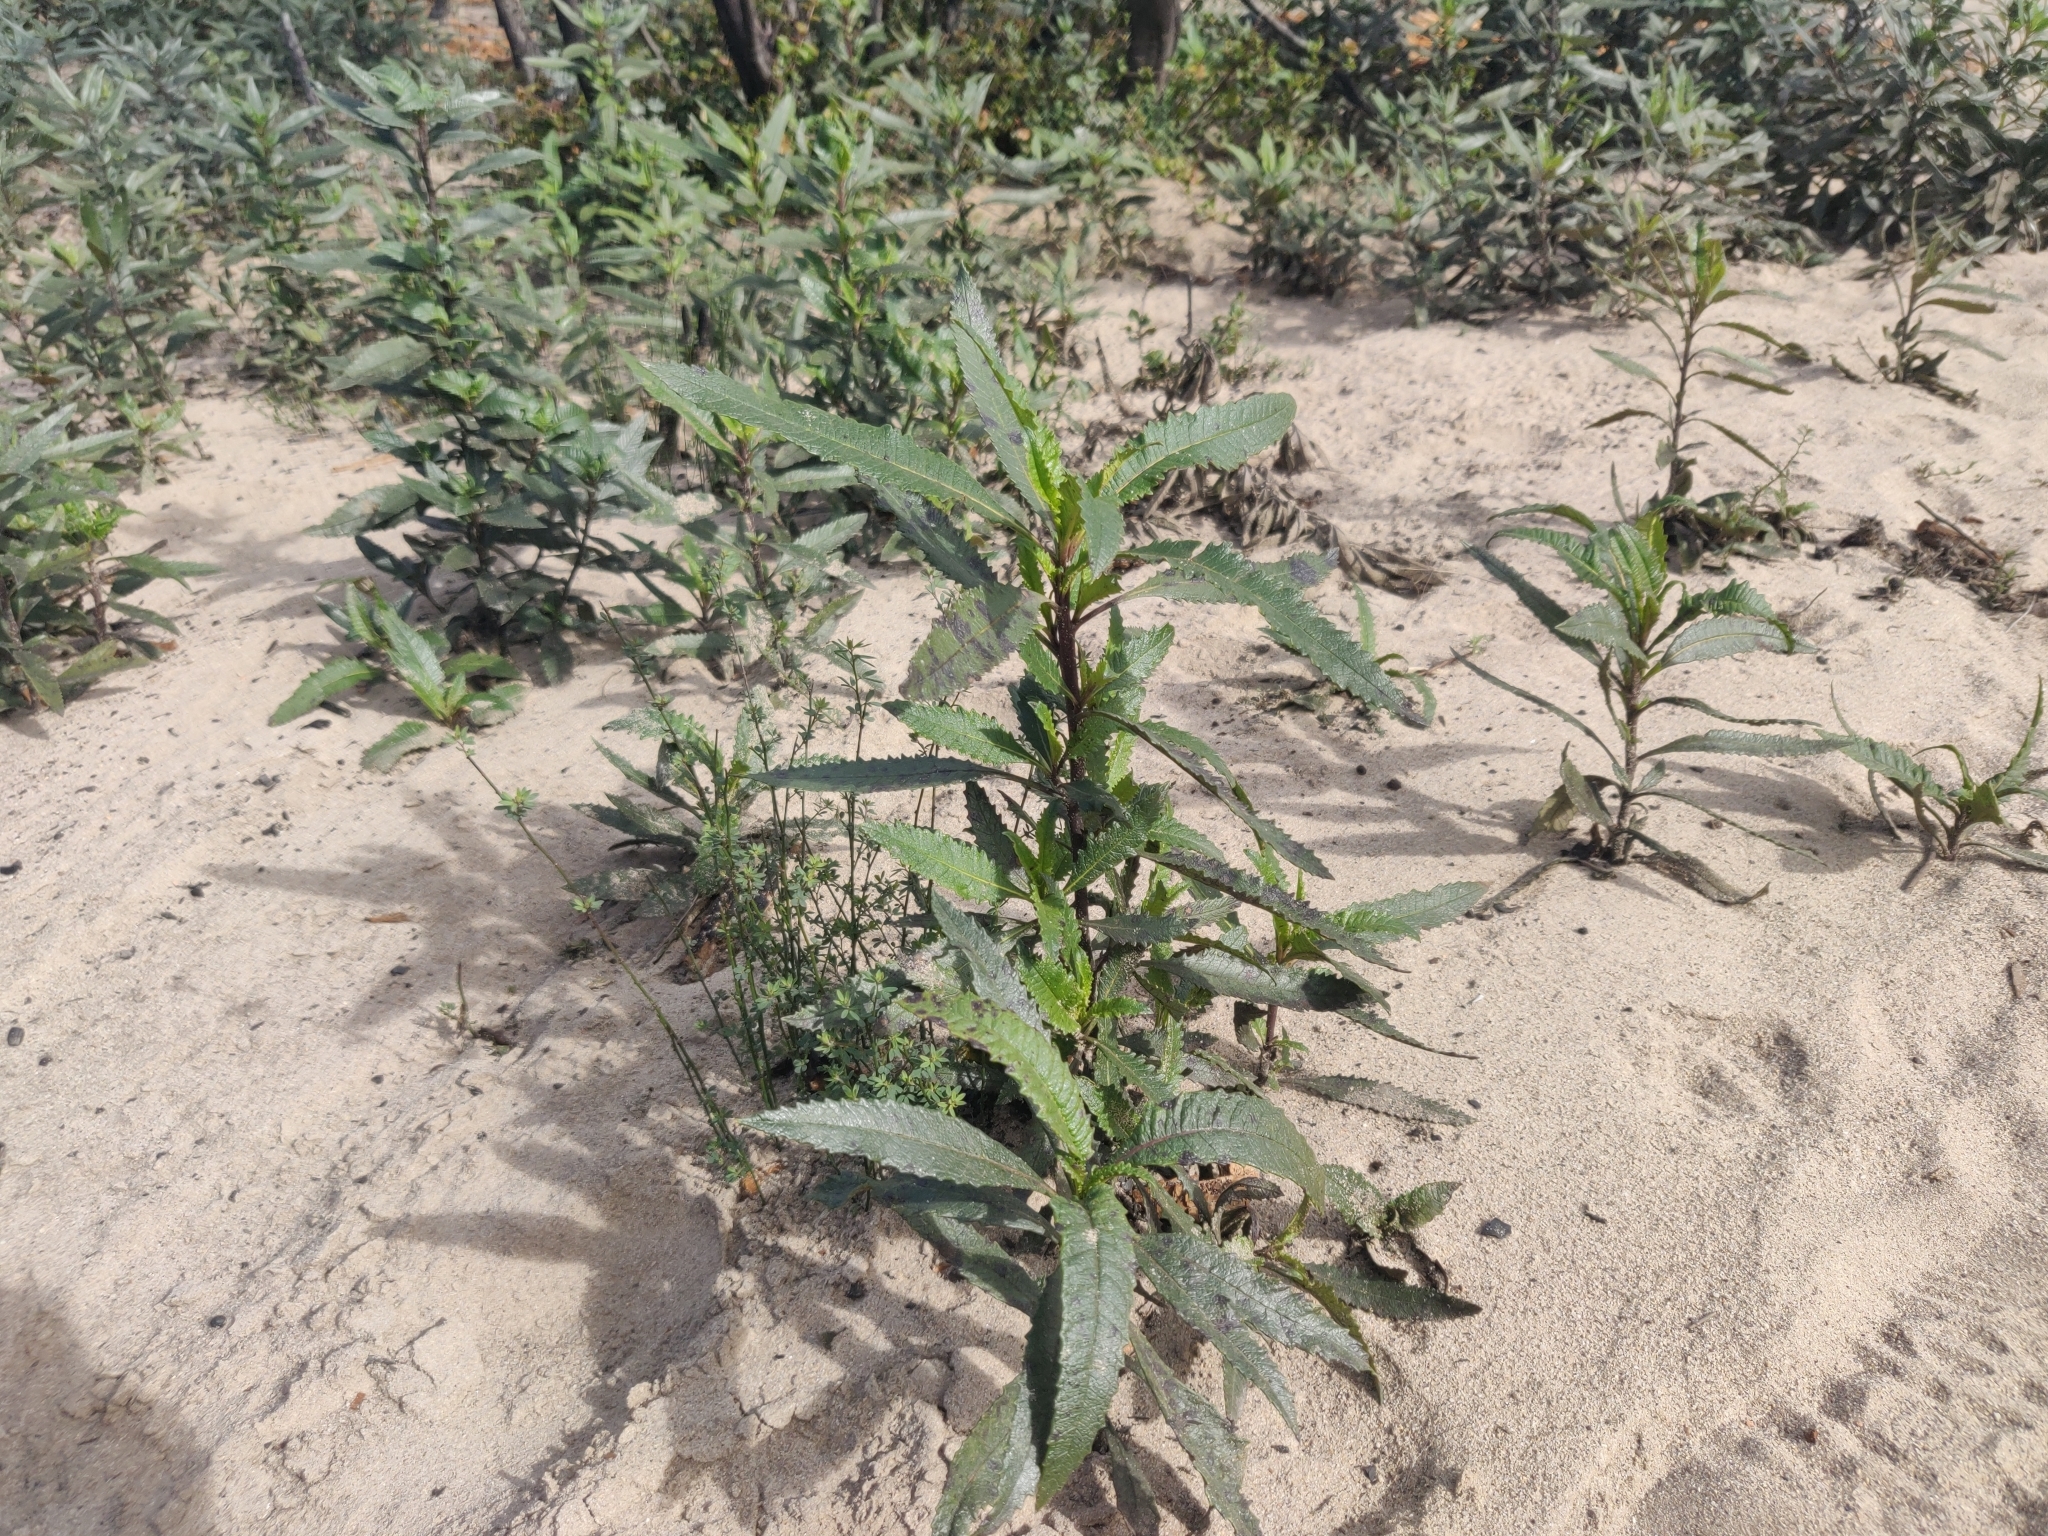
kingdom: Plantae
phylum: Tracheophyta
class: Magnoliopsida
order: Boraginales
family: Namaceae
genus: Eriodictyon
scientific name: Eriodictyon californicum
